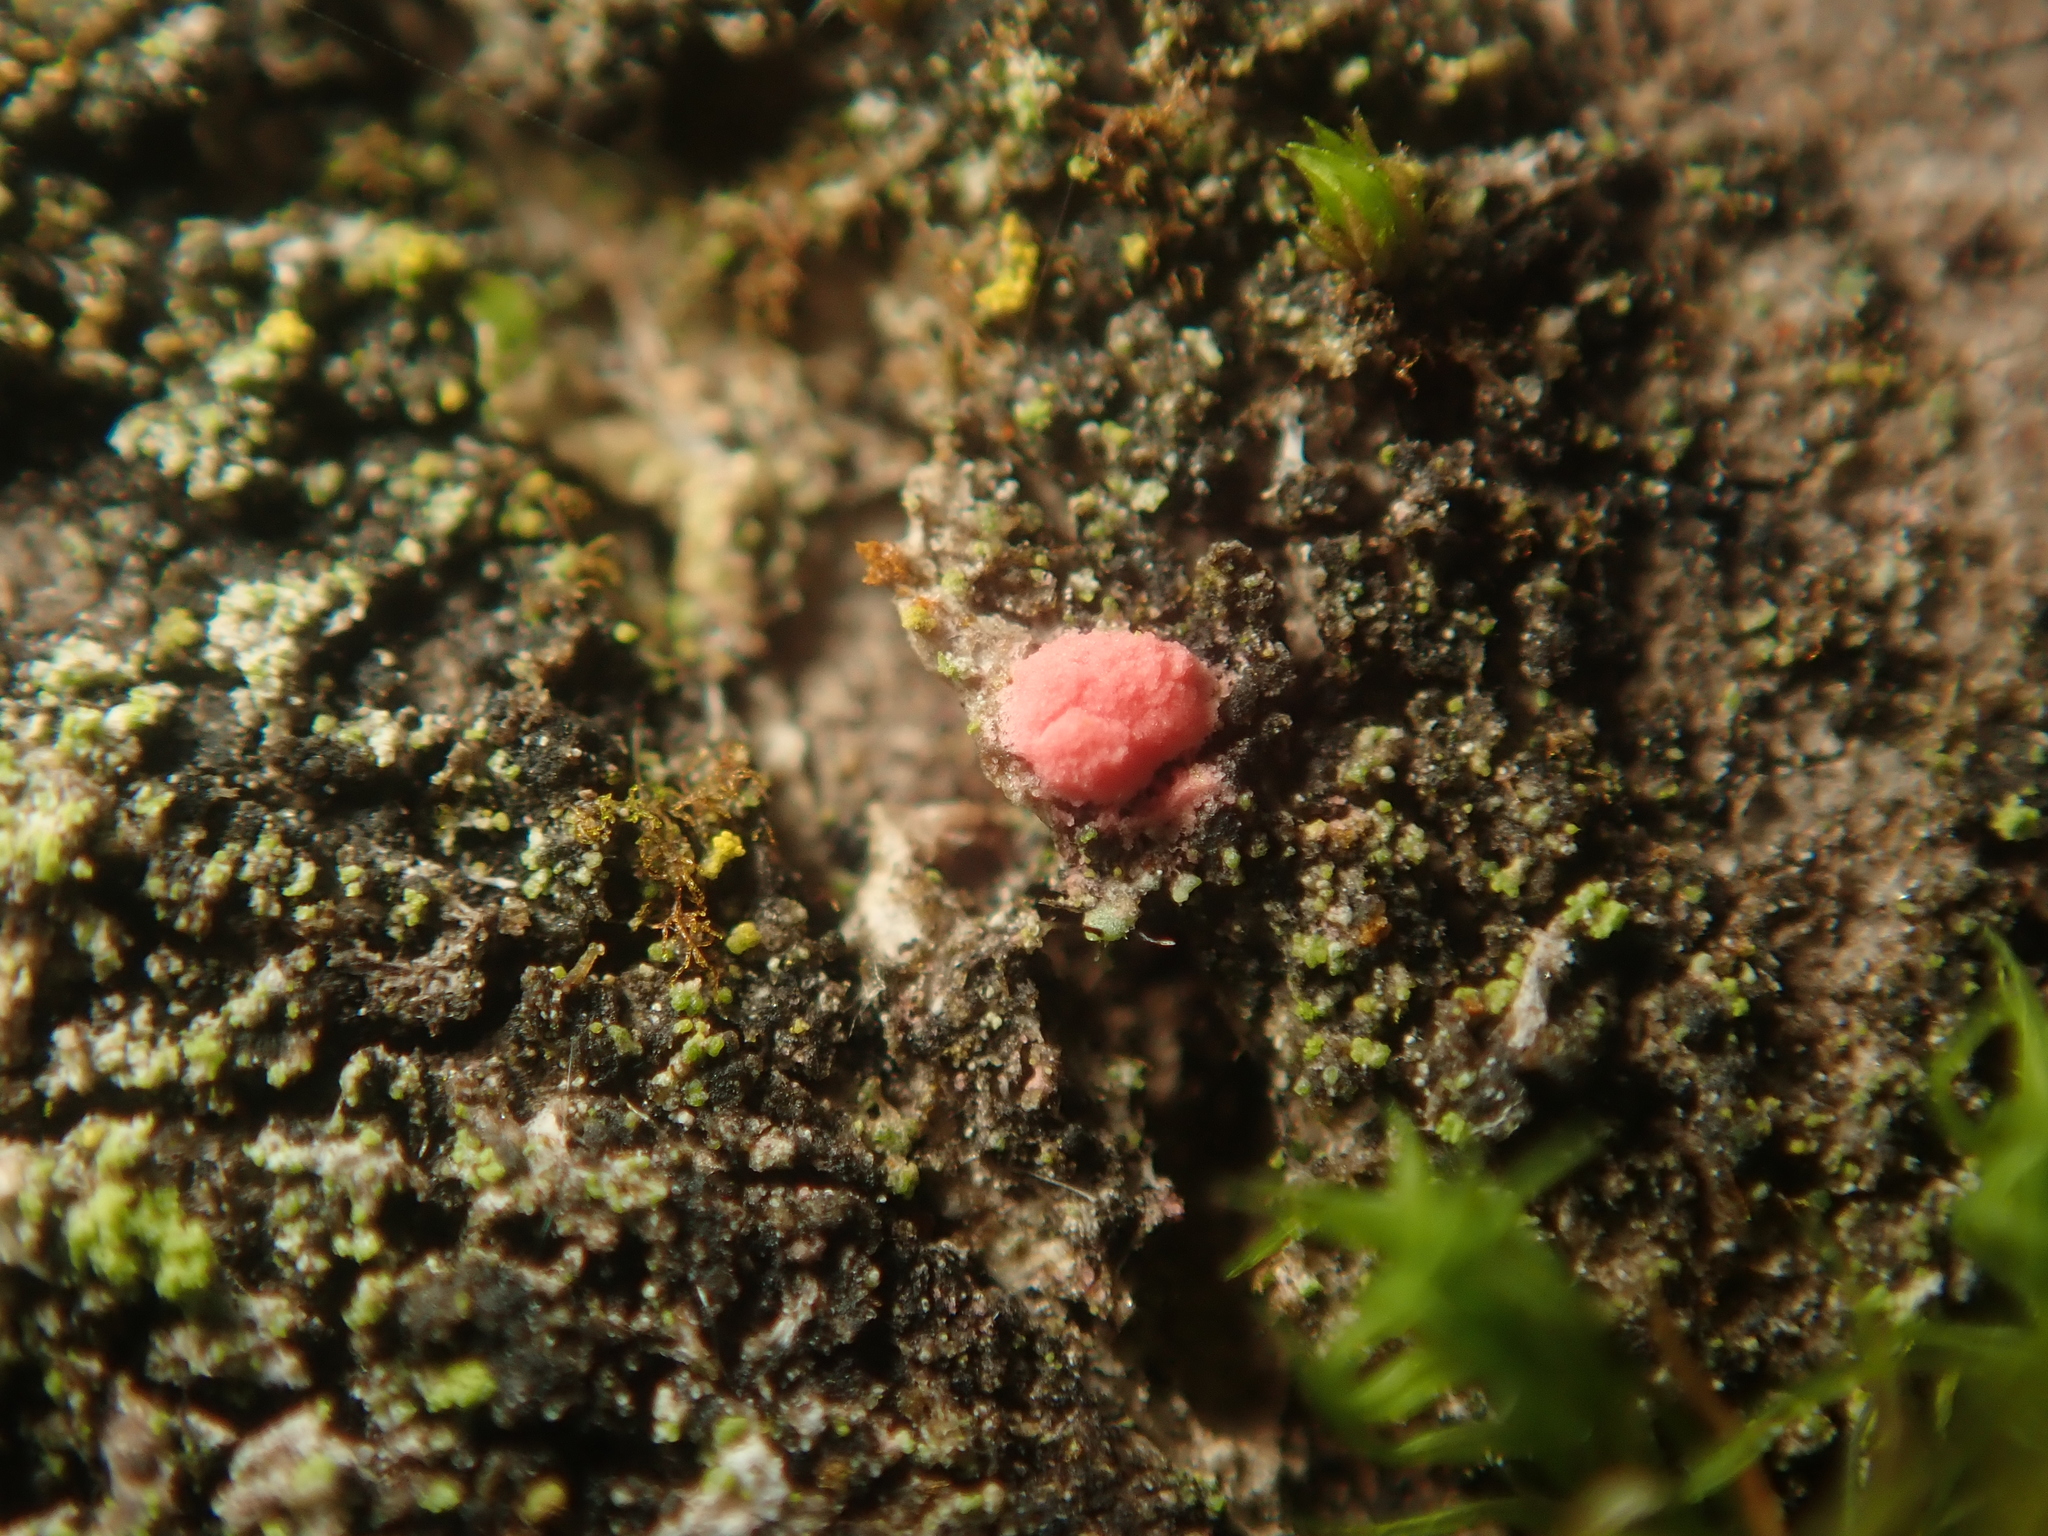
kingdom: Fungi
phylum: Ascomycota
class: Sordariomycetes
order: Hypocreales
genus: Illosporiopsis
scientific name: Illosporiopsis christiansenii
